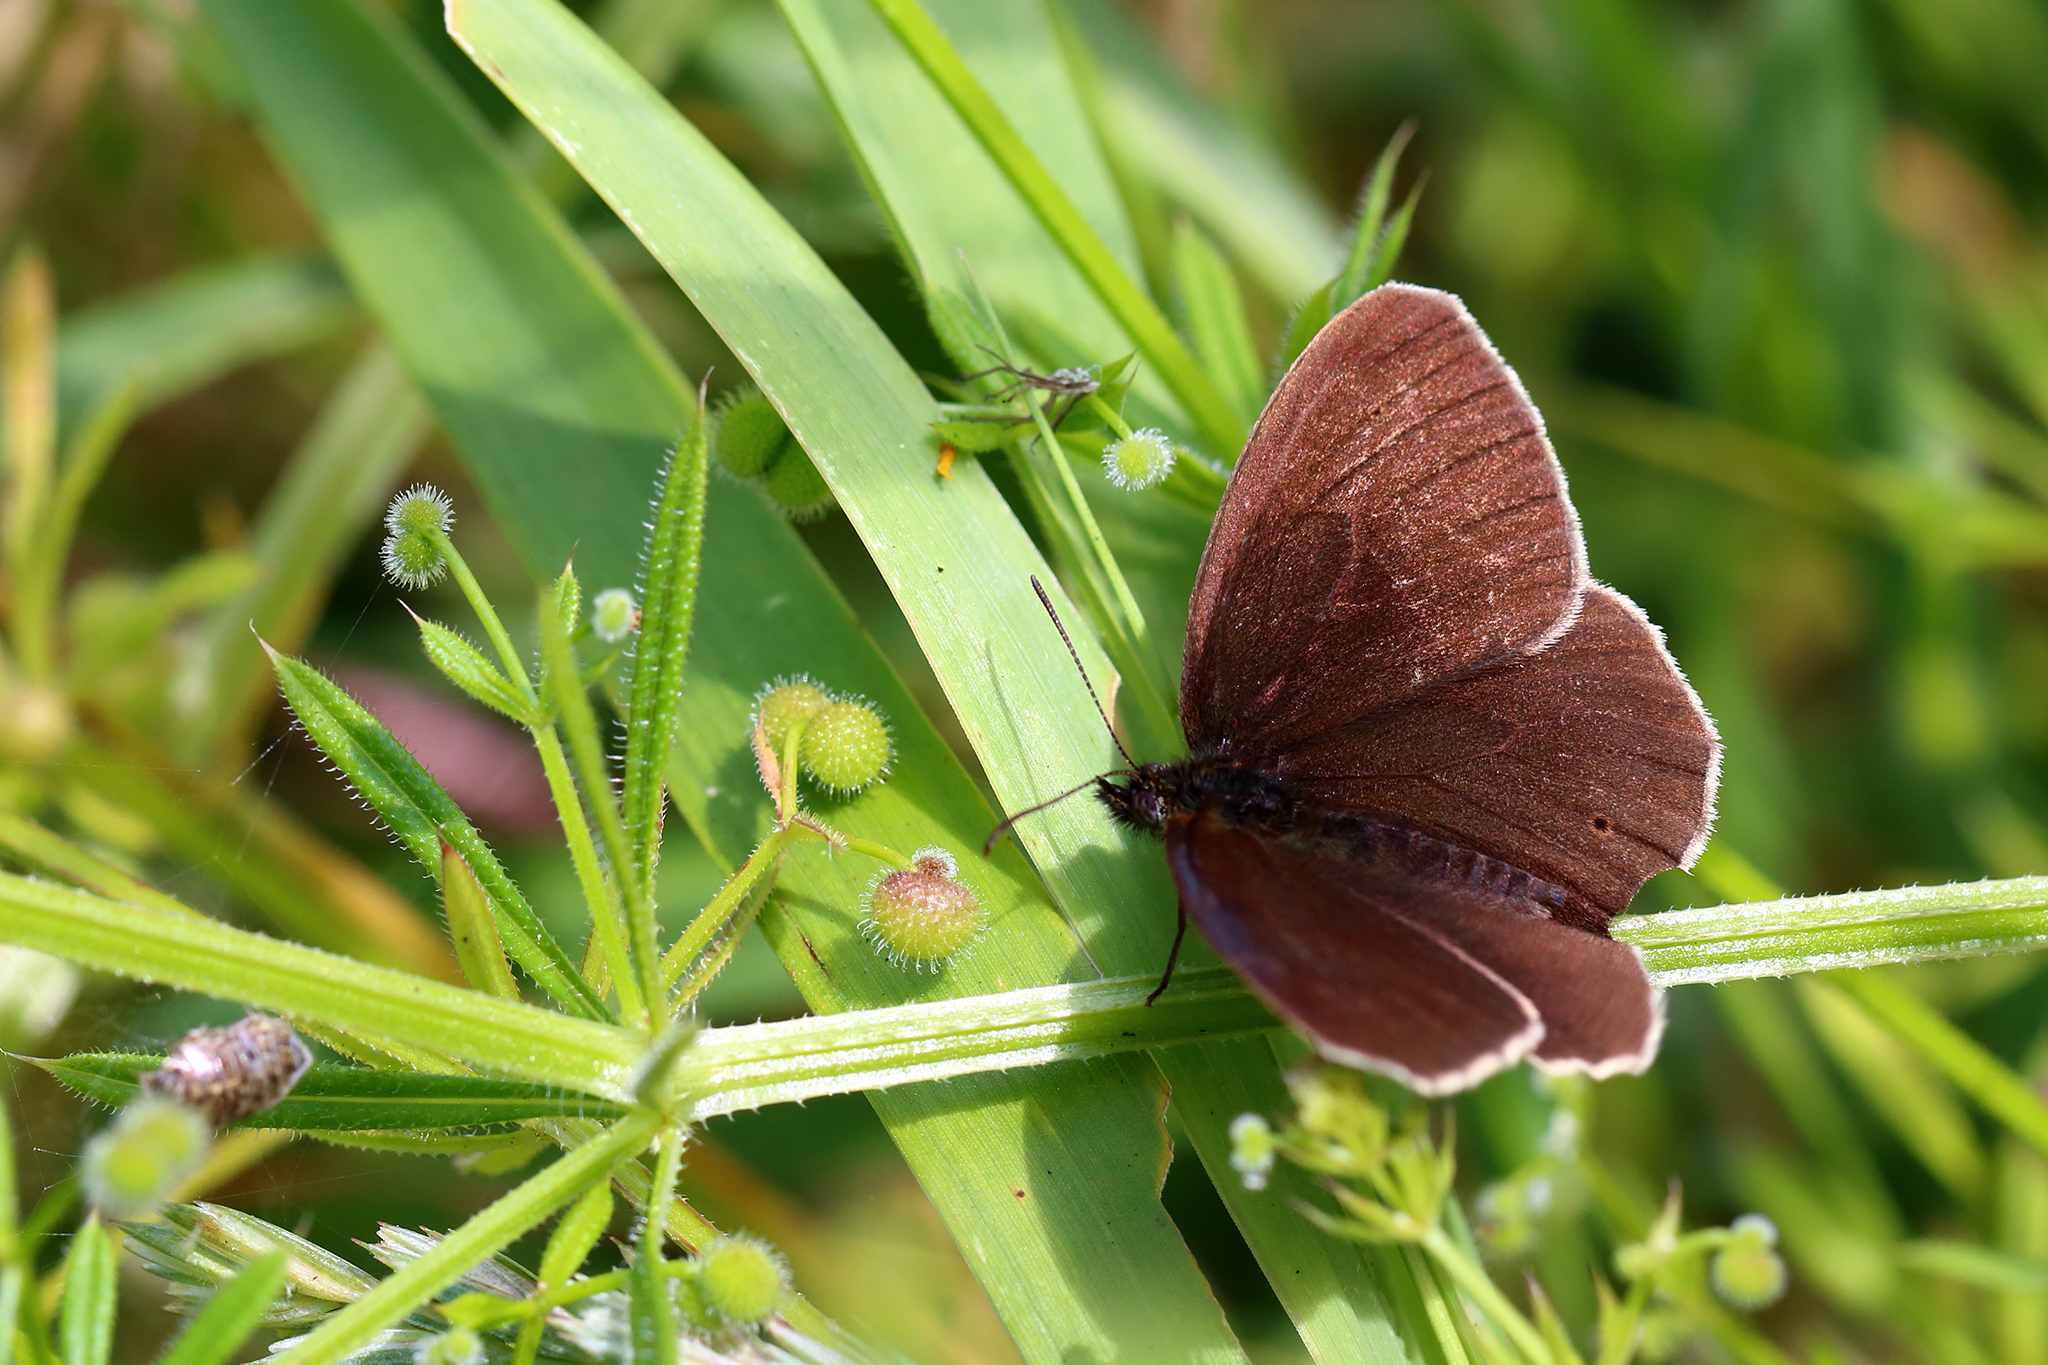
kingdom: Animalia
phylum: Arthropoda
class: Insecta
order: Lepidoptera
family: Nymphalidae
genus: Aphantopus
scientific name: Aphantopus hyperantus
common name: Ringlet
